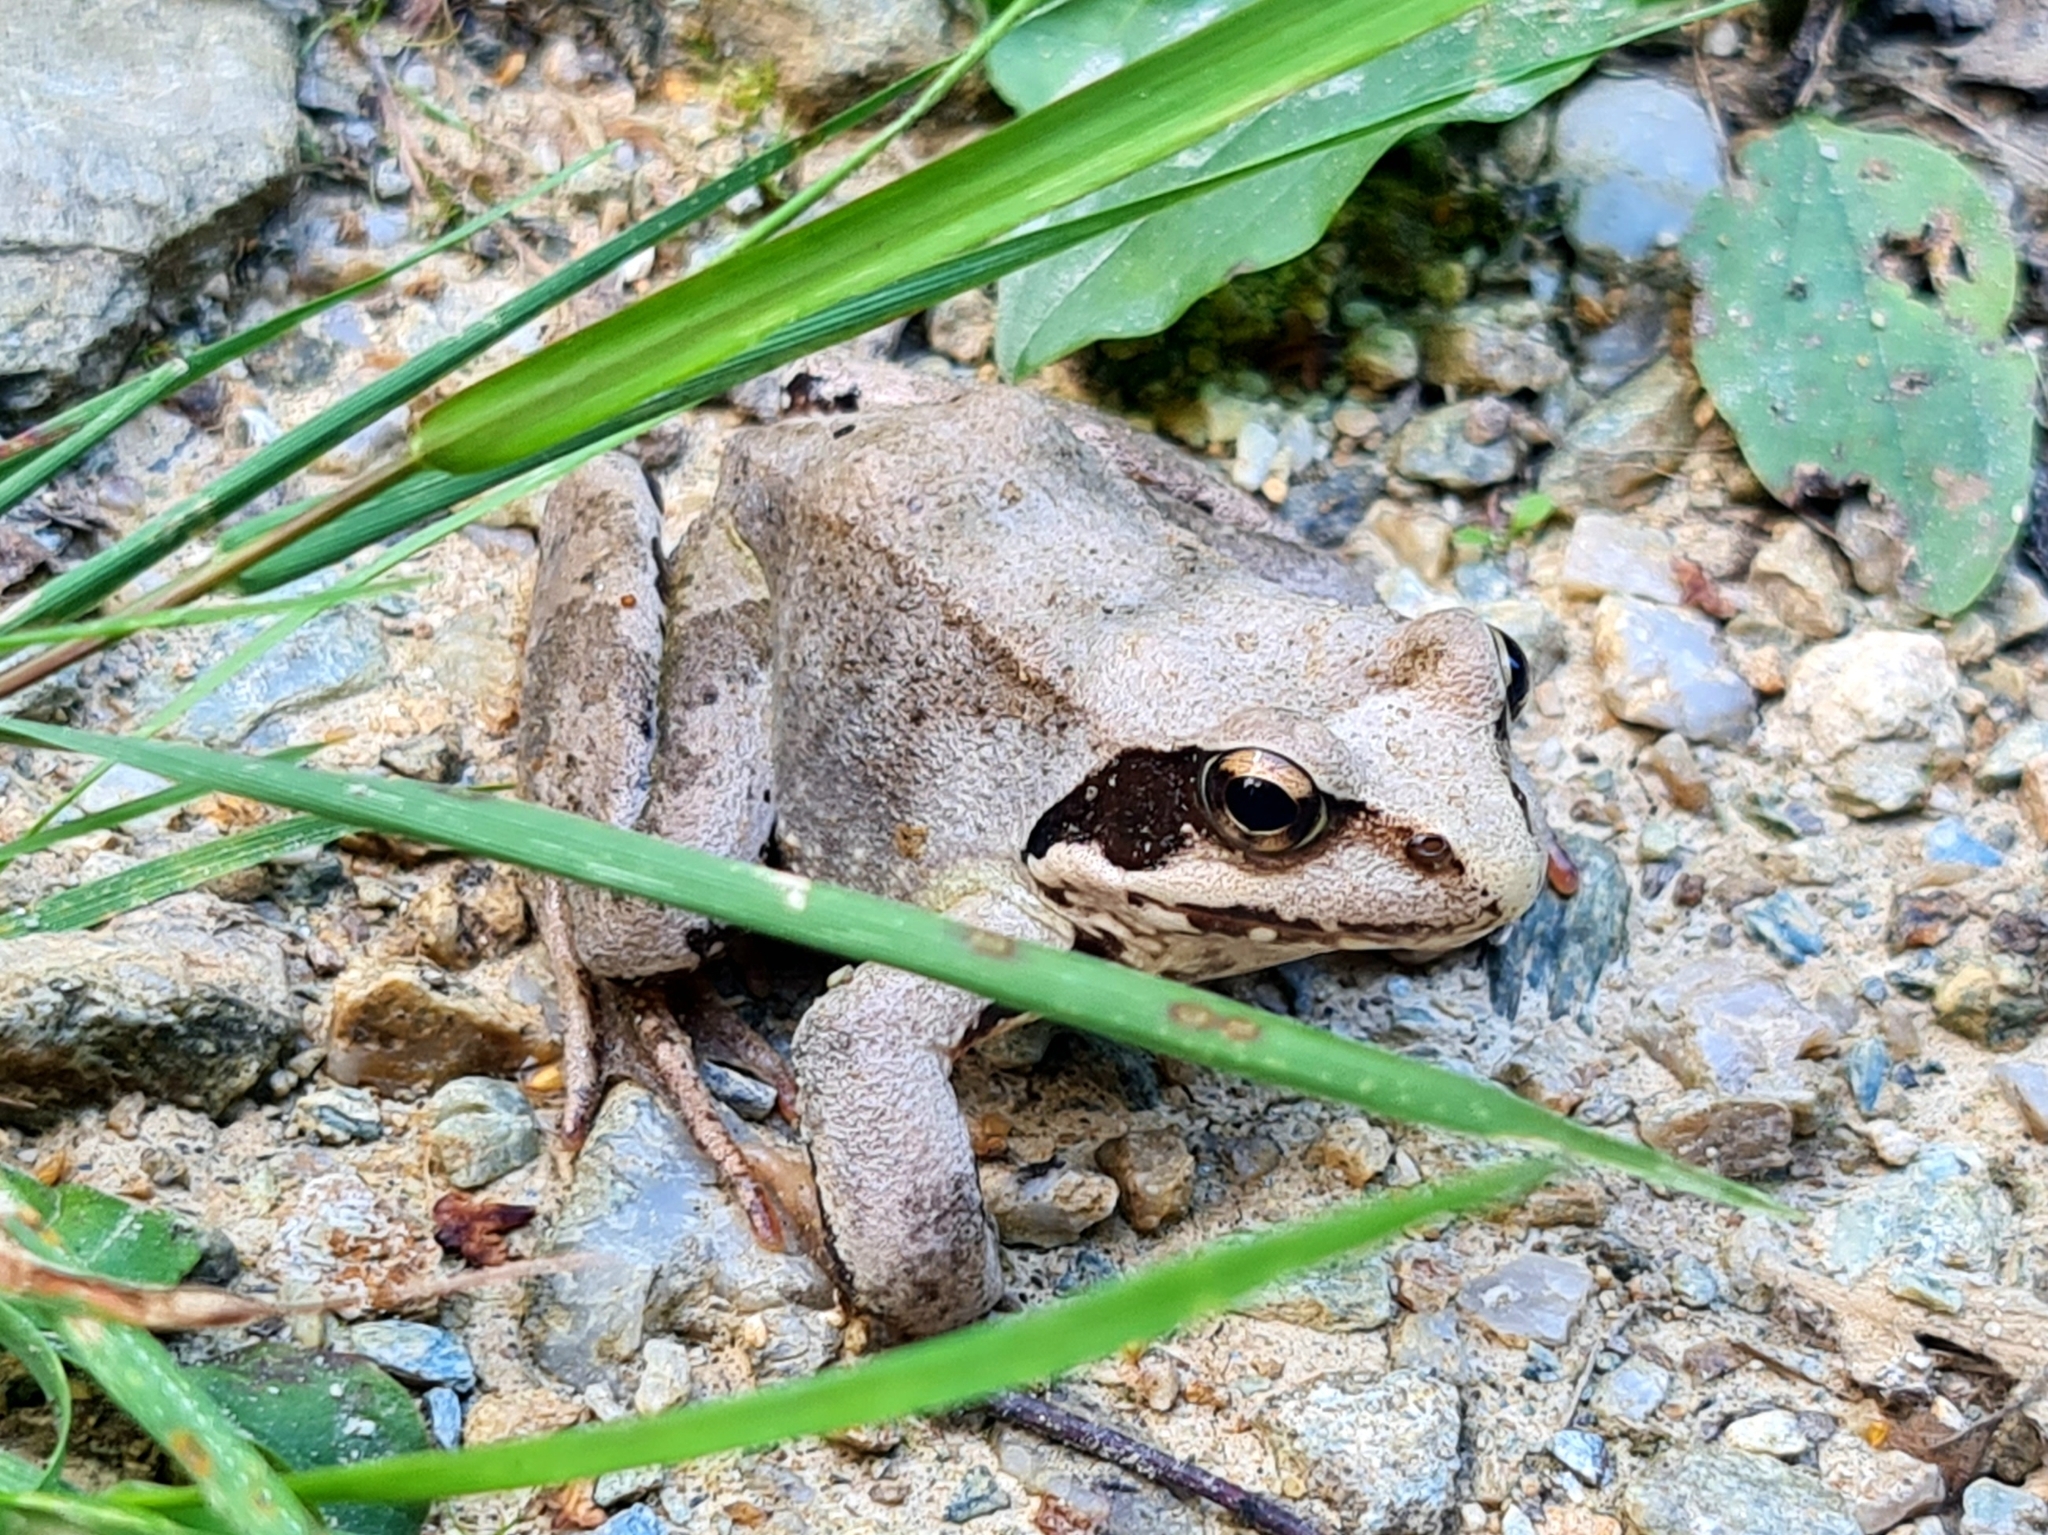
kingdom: Animalia
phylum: Chordata
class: Amphibia
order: Anura
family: Ranidae
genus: Rana
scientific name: Rana temporaria
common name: Common frog
